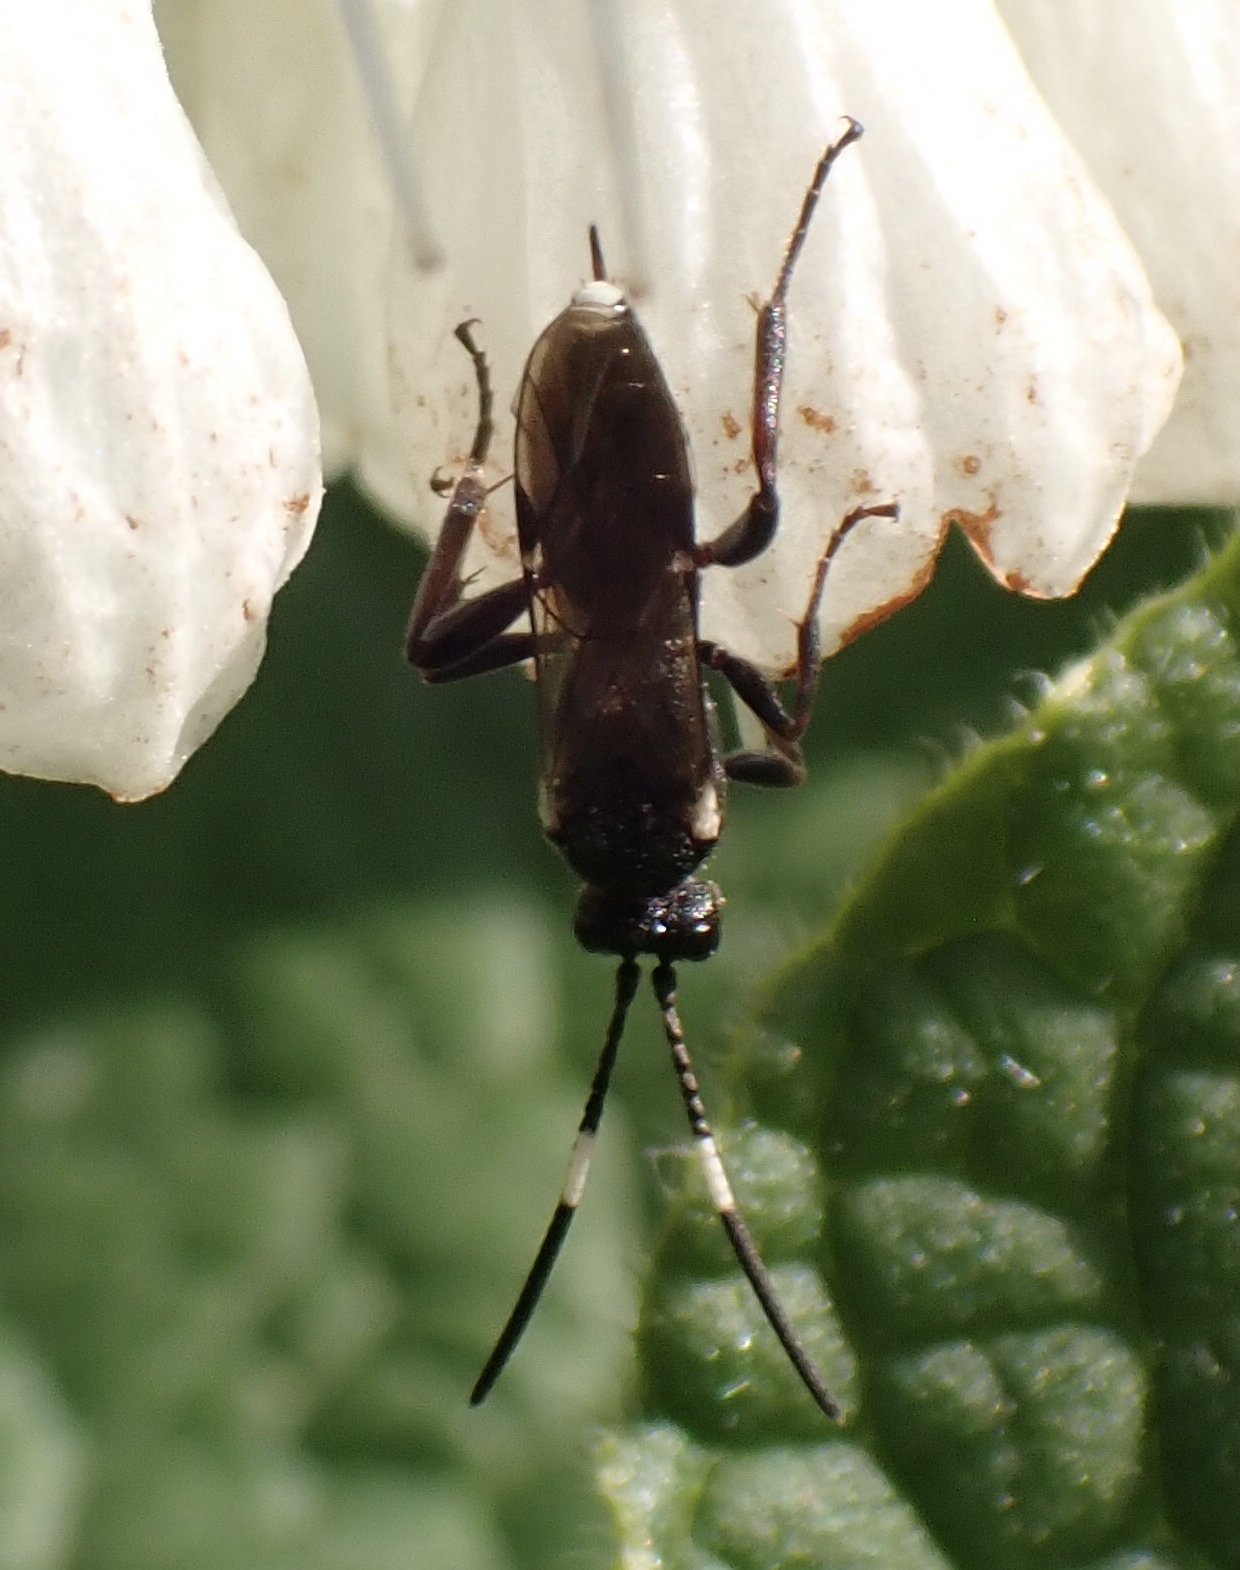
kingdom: Animalia
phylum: Arthropoda
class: Insecta
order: Hymenoptera
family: Ichneumonidae
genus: Rhembobius
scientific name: Rhembobius perscrutator
